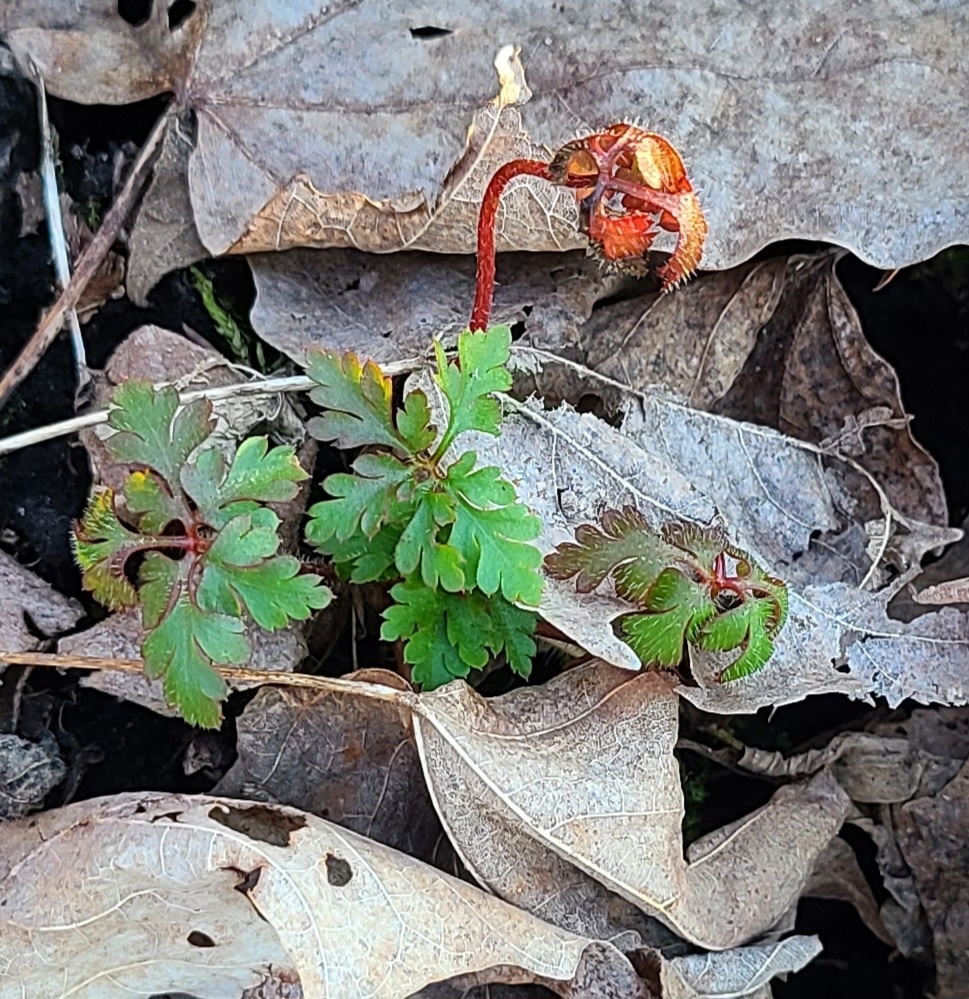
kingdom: Plantae
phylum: Tracheophyta
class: Magnoliopsida
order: Geraniales
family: Geraniaceae
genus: Geranium
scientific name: Geranium robertianum
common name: Herb-robert
